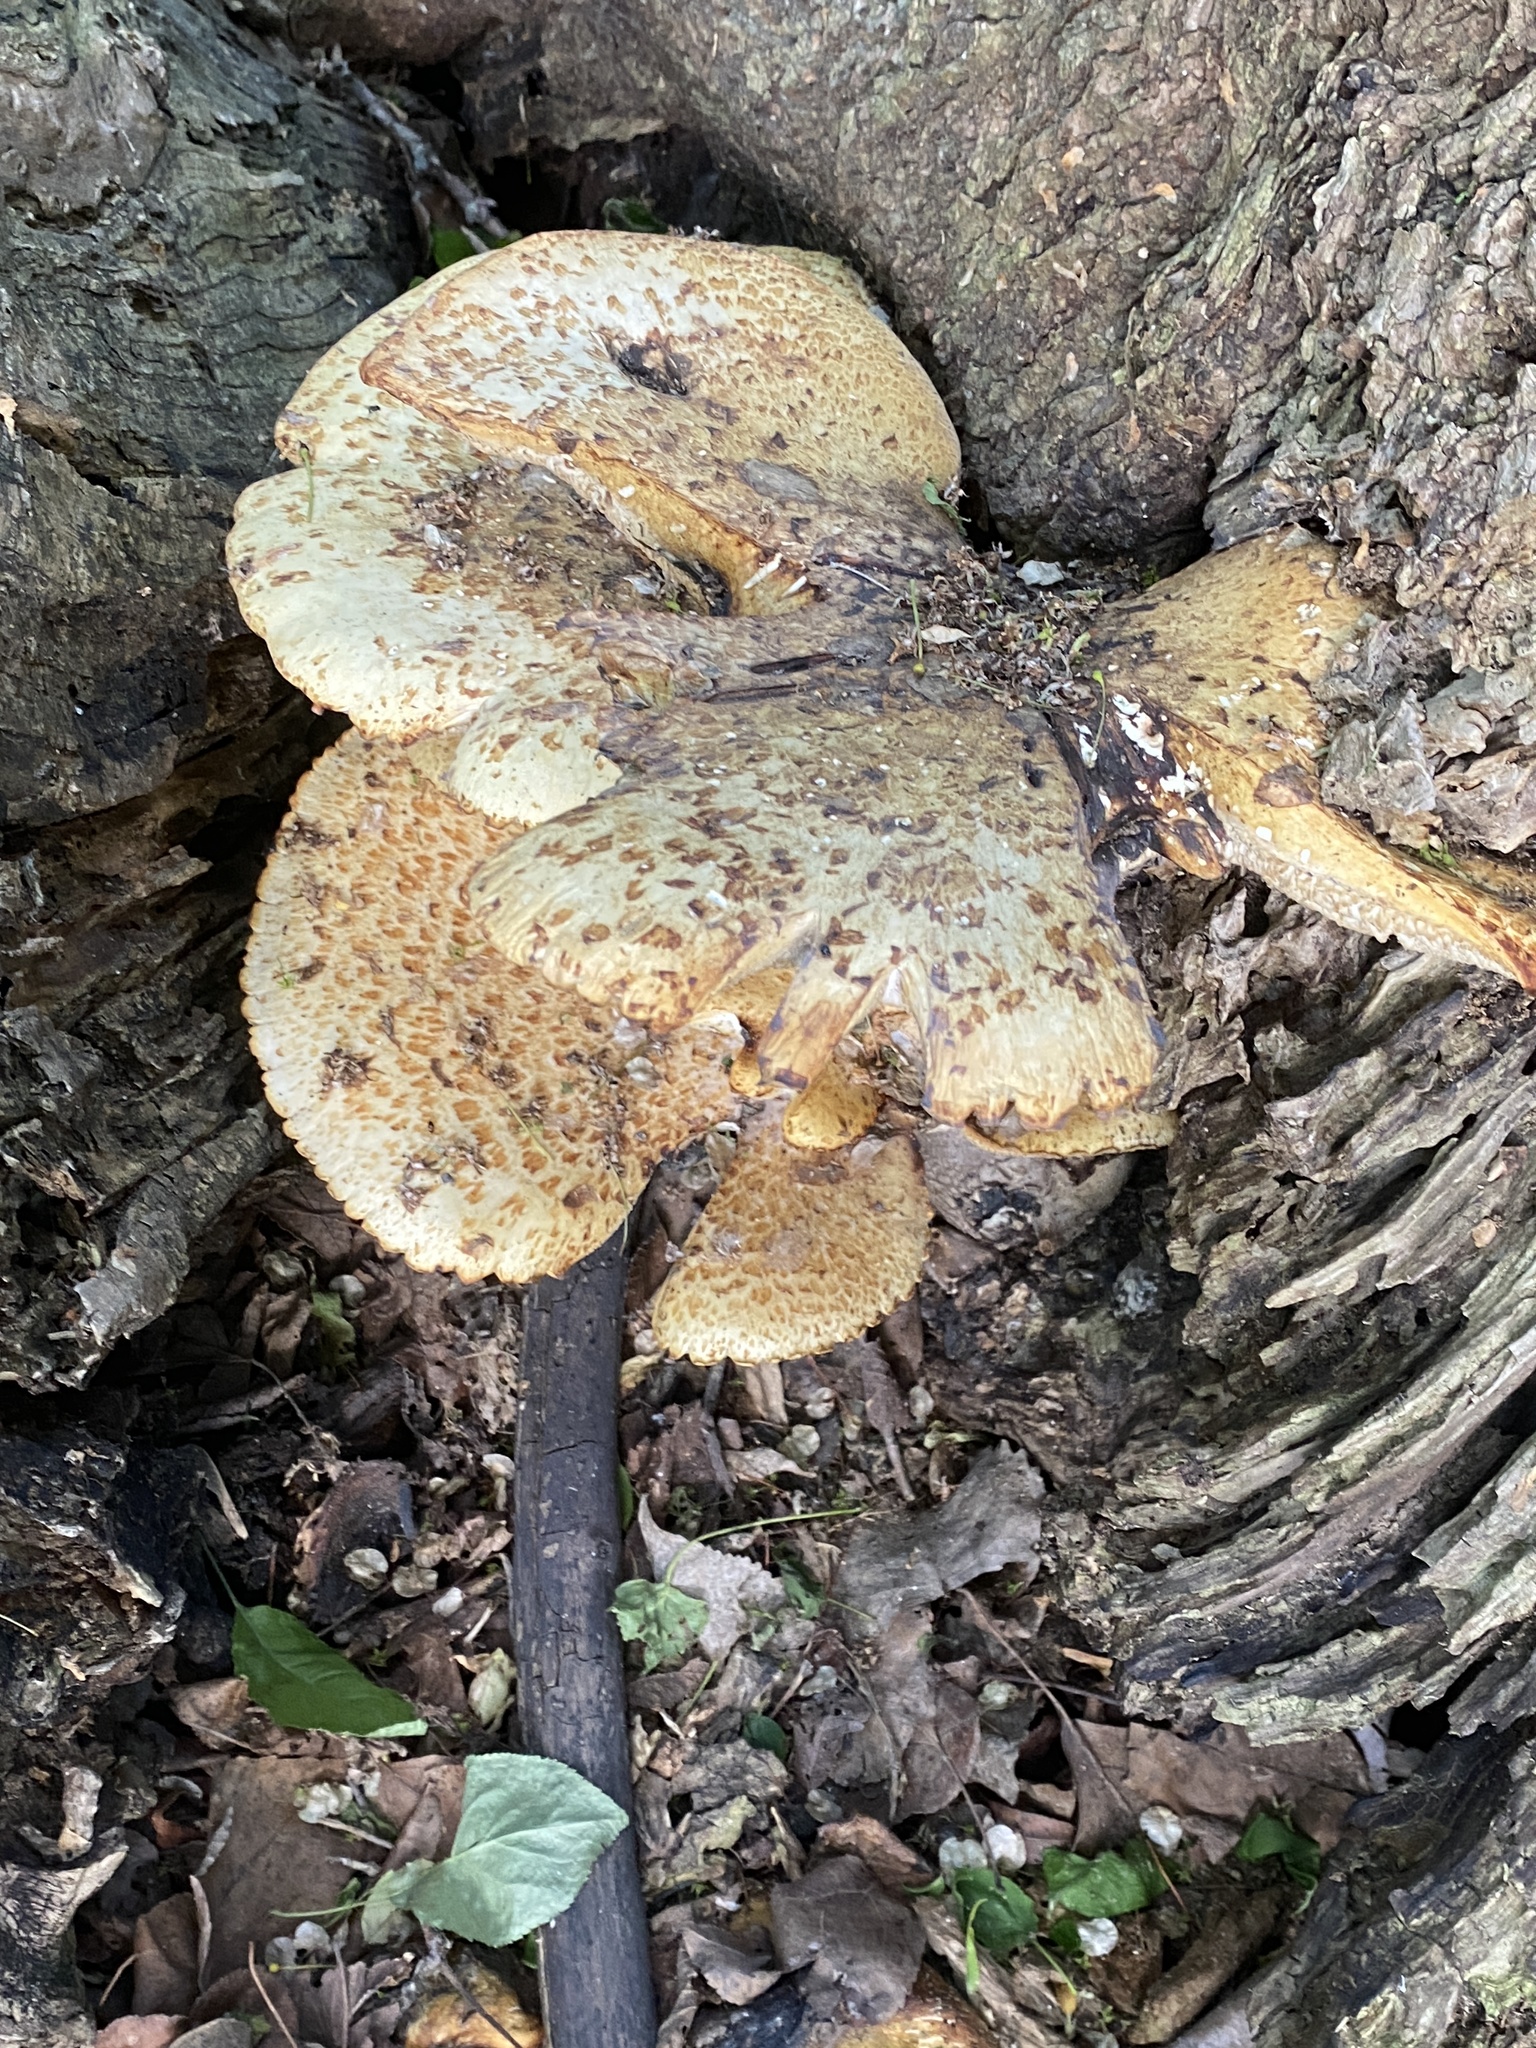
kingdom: Fungi
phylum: Basidiomycota
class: Agaricomycetes
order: Polyporales
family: Polyporaceae
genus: Cerioporus
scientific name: Cerioporus squamosus
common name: Dryad's saddle
